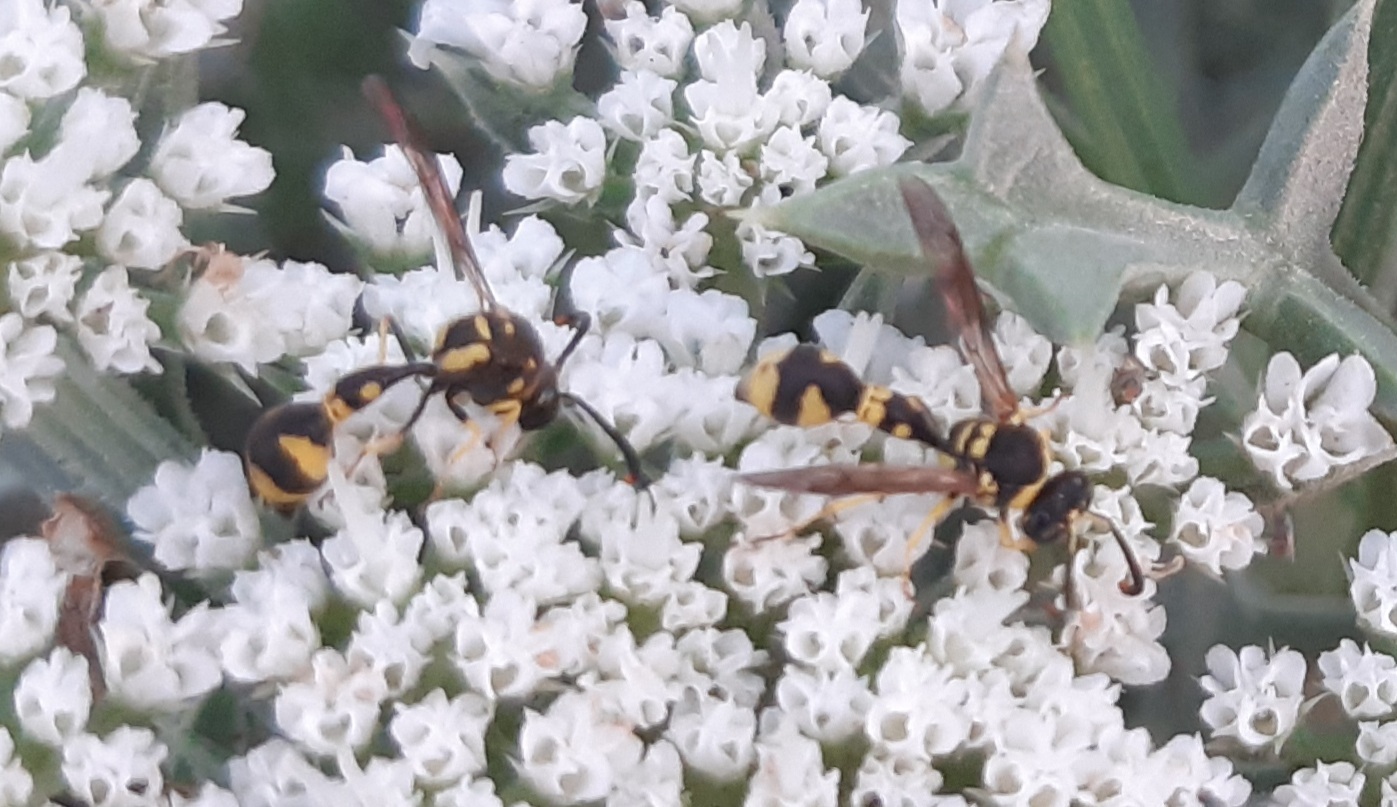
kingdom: Animalia
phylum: Arthropoda
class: Insecta
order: Hymenoptera
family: Vespidae
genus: Eumenes
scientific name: Eumenes mediterraneus
